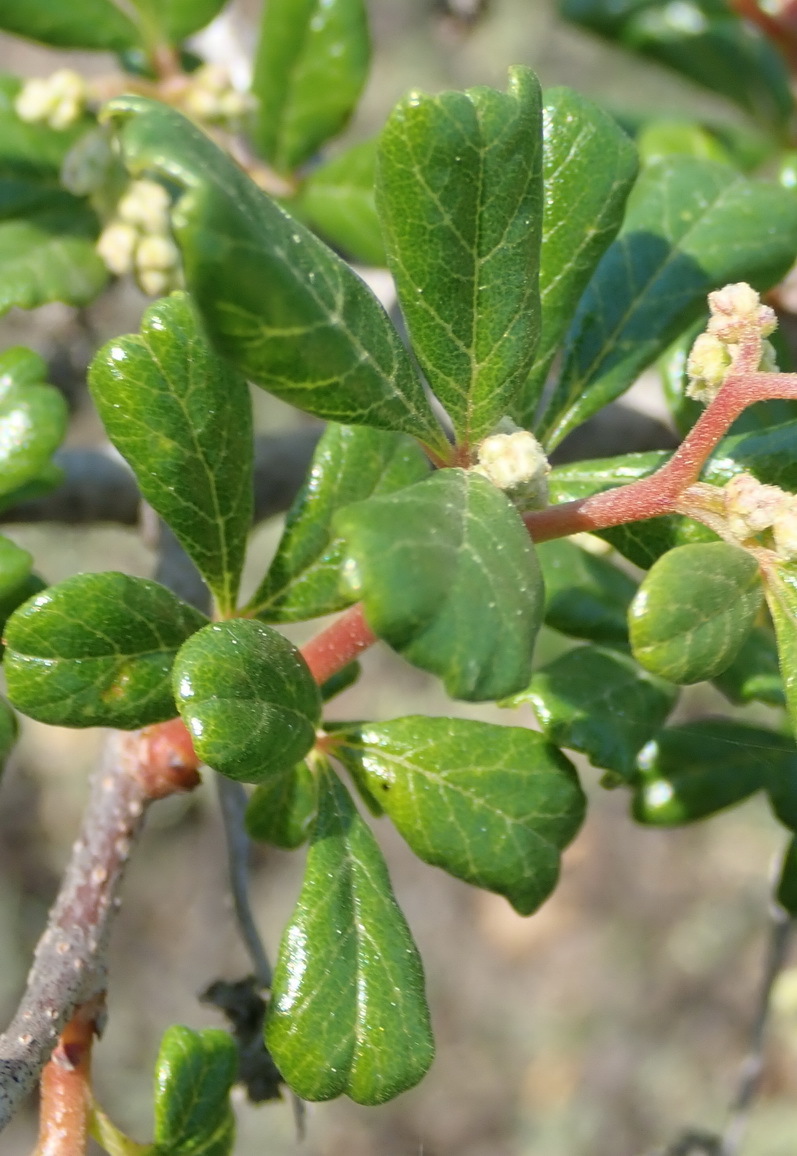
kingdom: Plantae
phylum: Tracheophyta
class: Magnoliopsida
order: Sapindales
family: Anacardiaceae
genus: Searsia
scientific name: Searsia incisa
